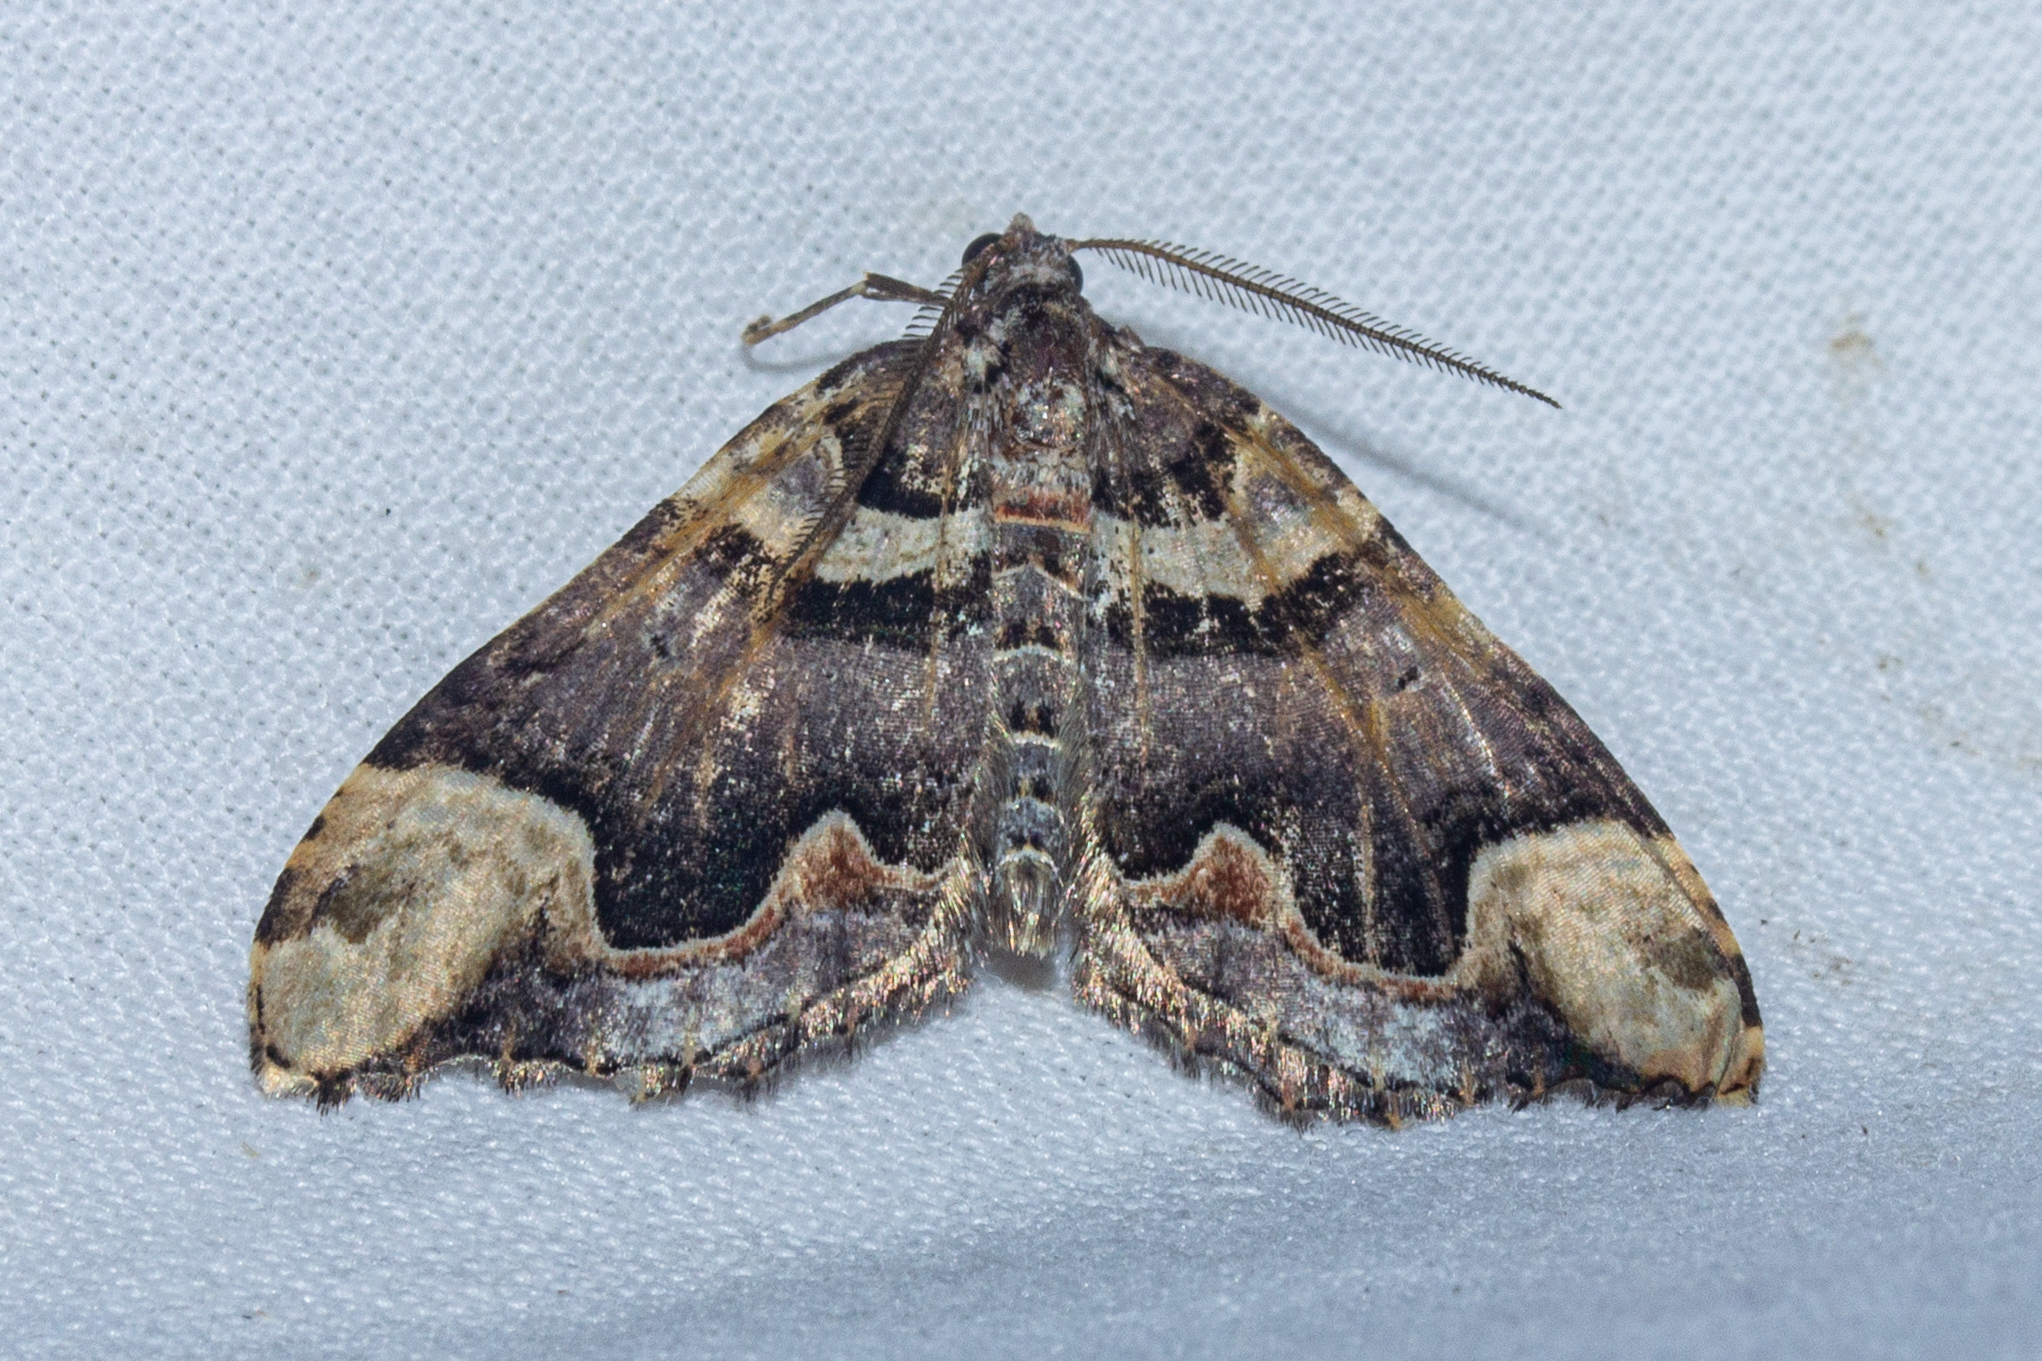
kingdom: Animalia
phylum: Arthropoda
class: Insecta
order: Lepidoptera
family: Geometridae
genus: Asaphodes
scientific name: Asaphodes chlamydota
